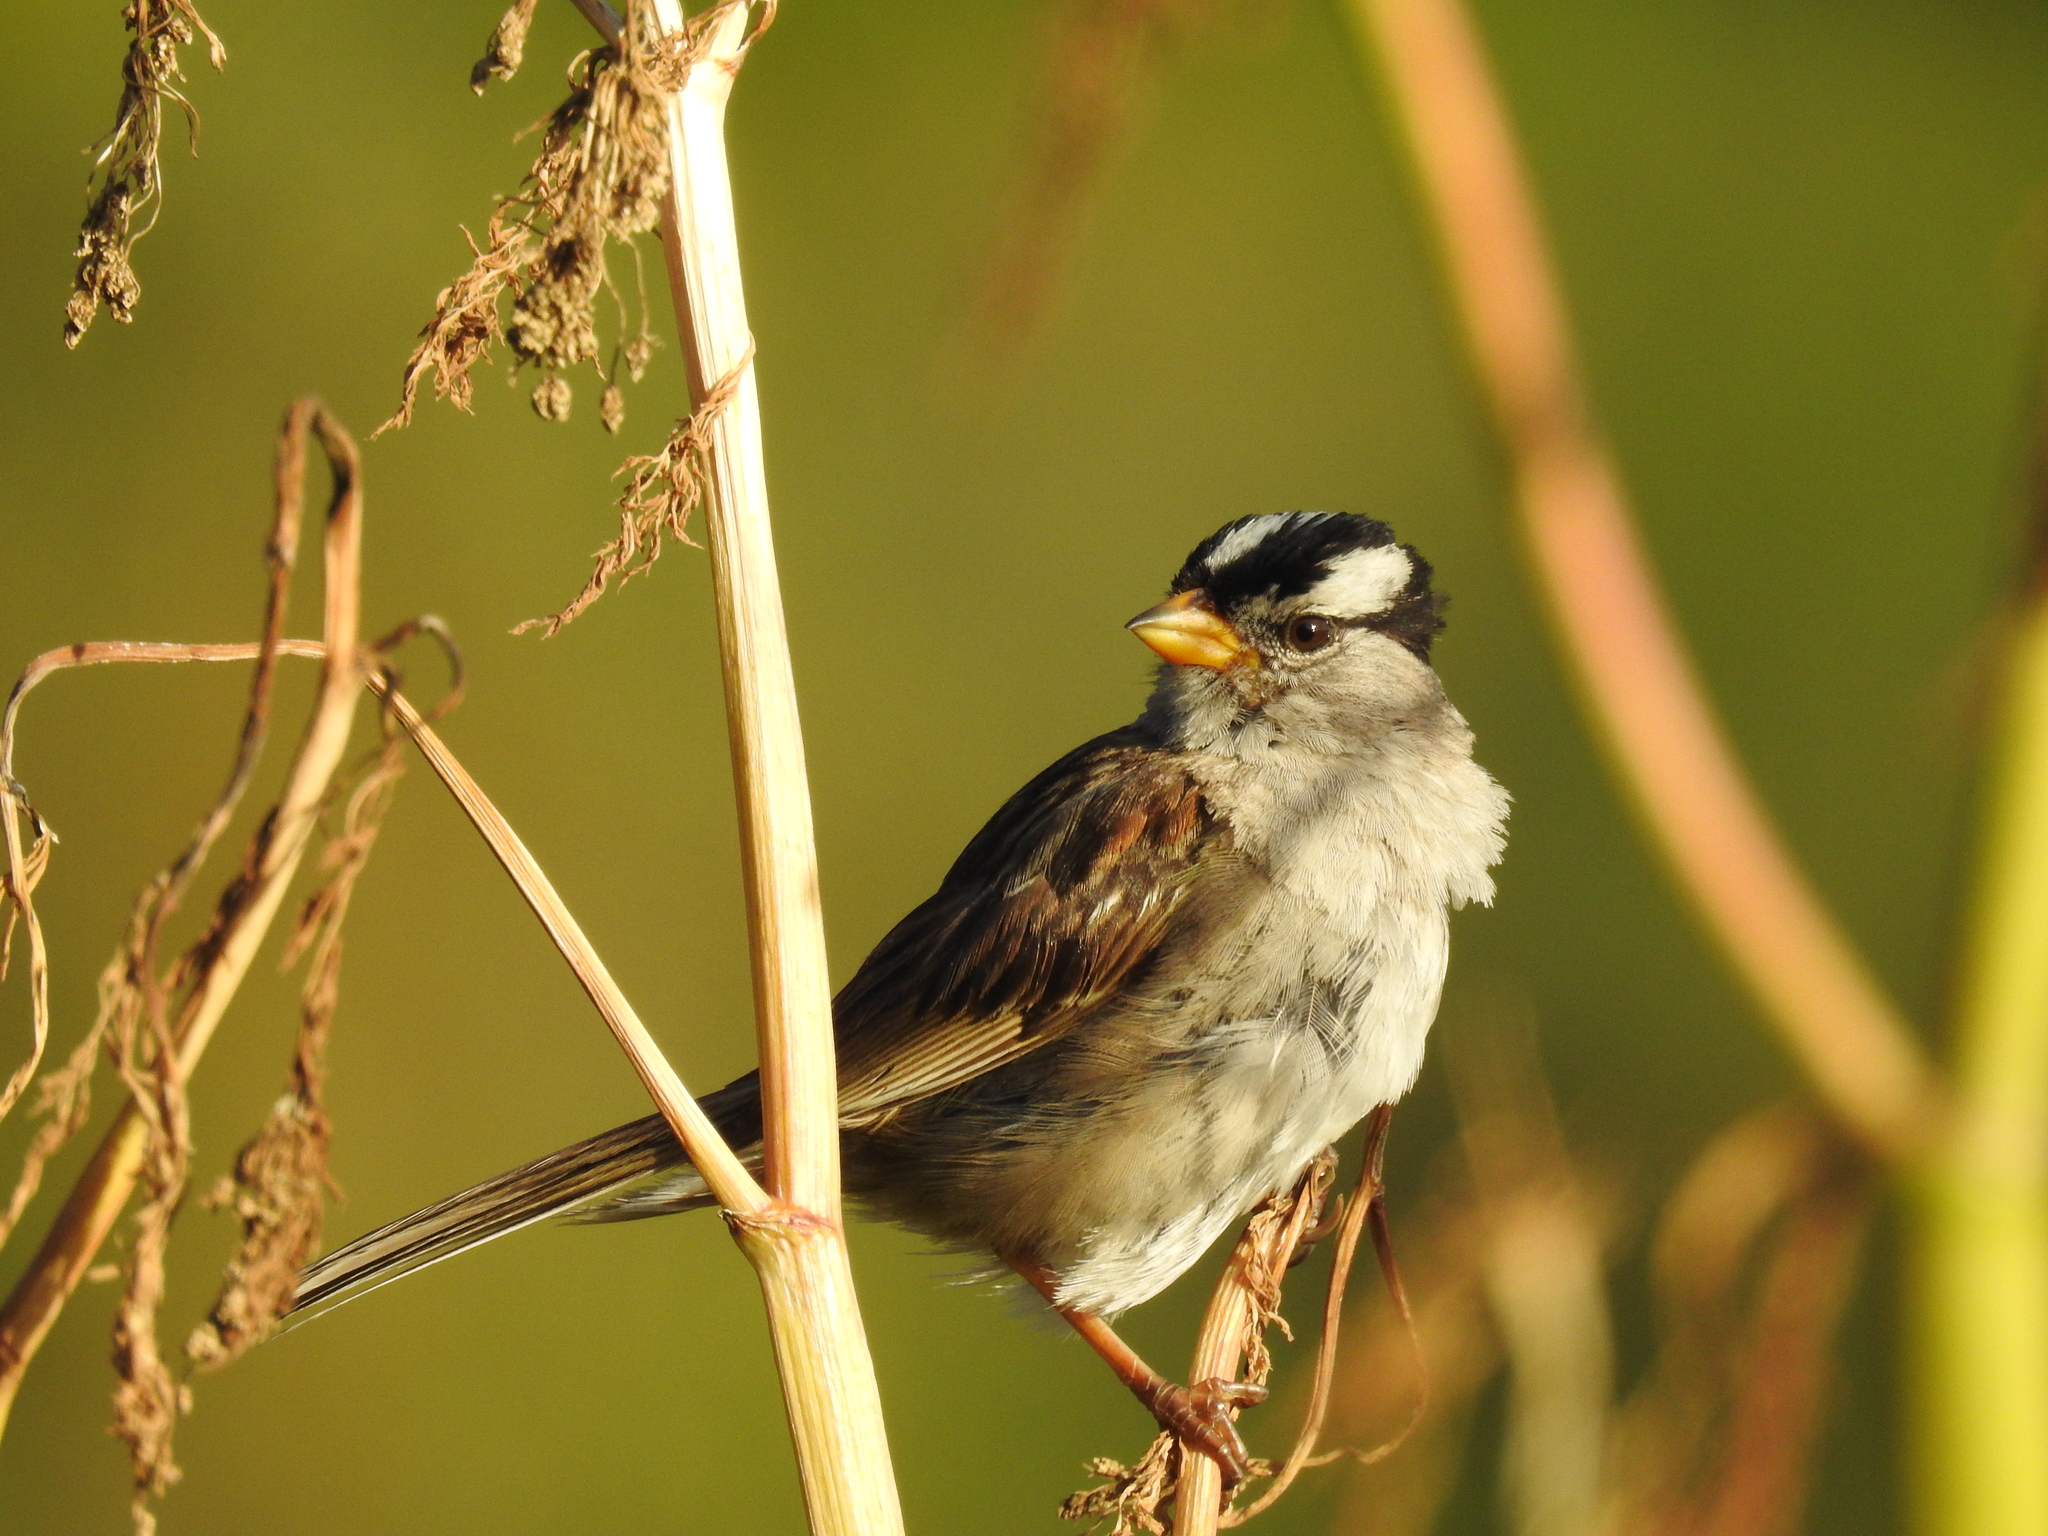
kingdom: Animalia
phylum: Chordata
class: Aves
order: Passeriformes
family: Passerellidae
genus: Zonotrichia
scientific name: Zonotrichia leucophrys
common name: White-crowned sparrow
